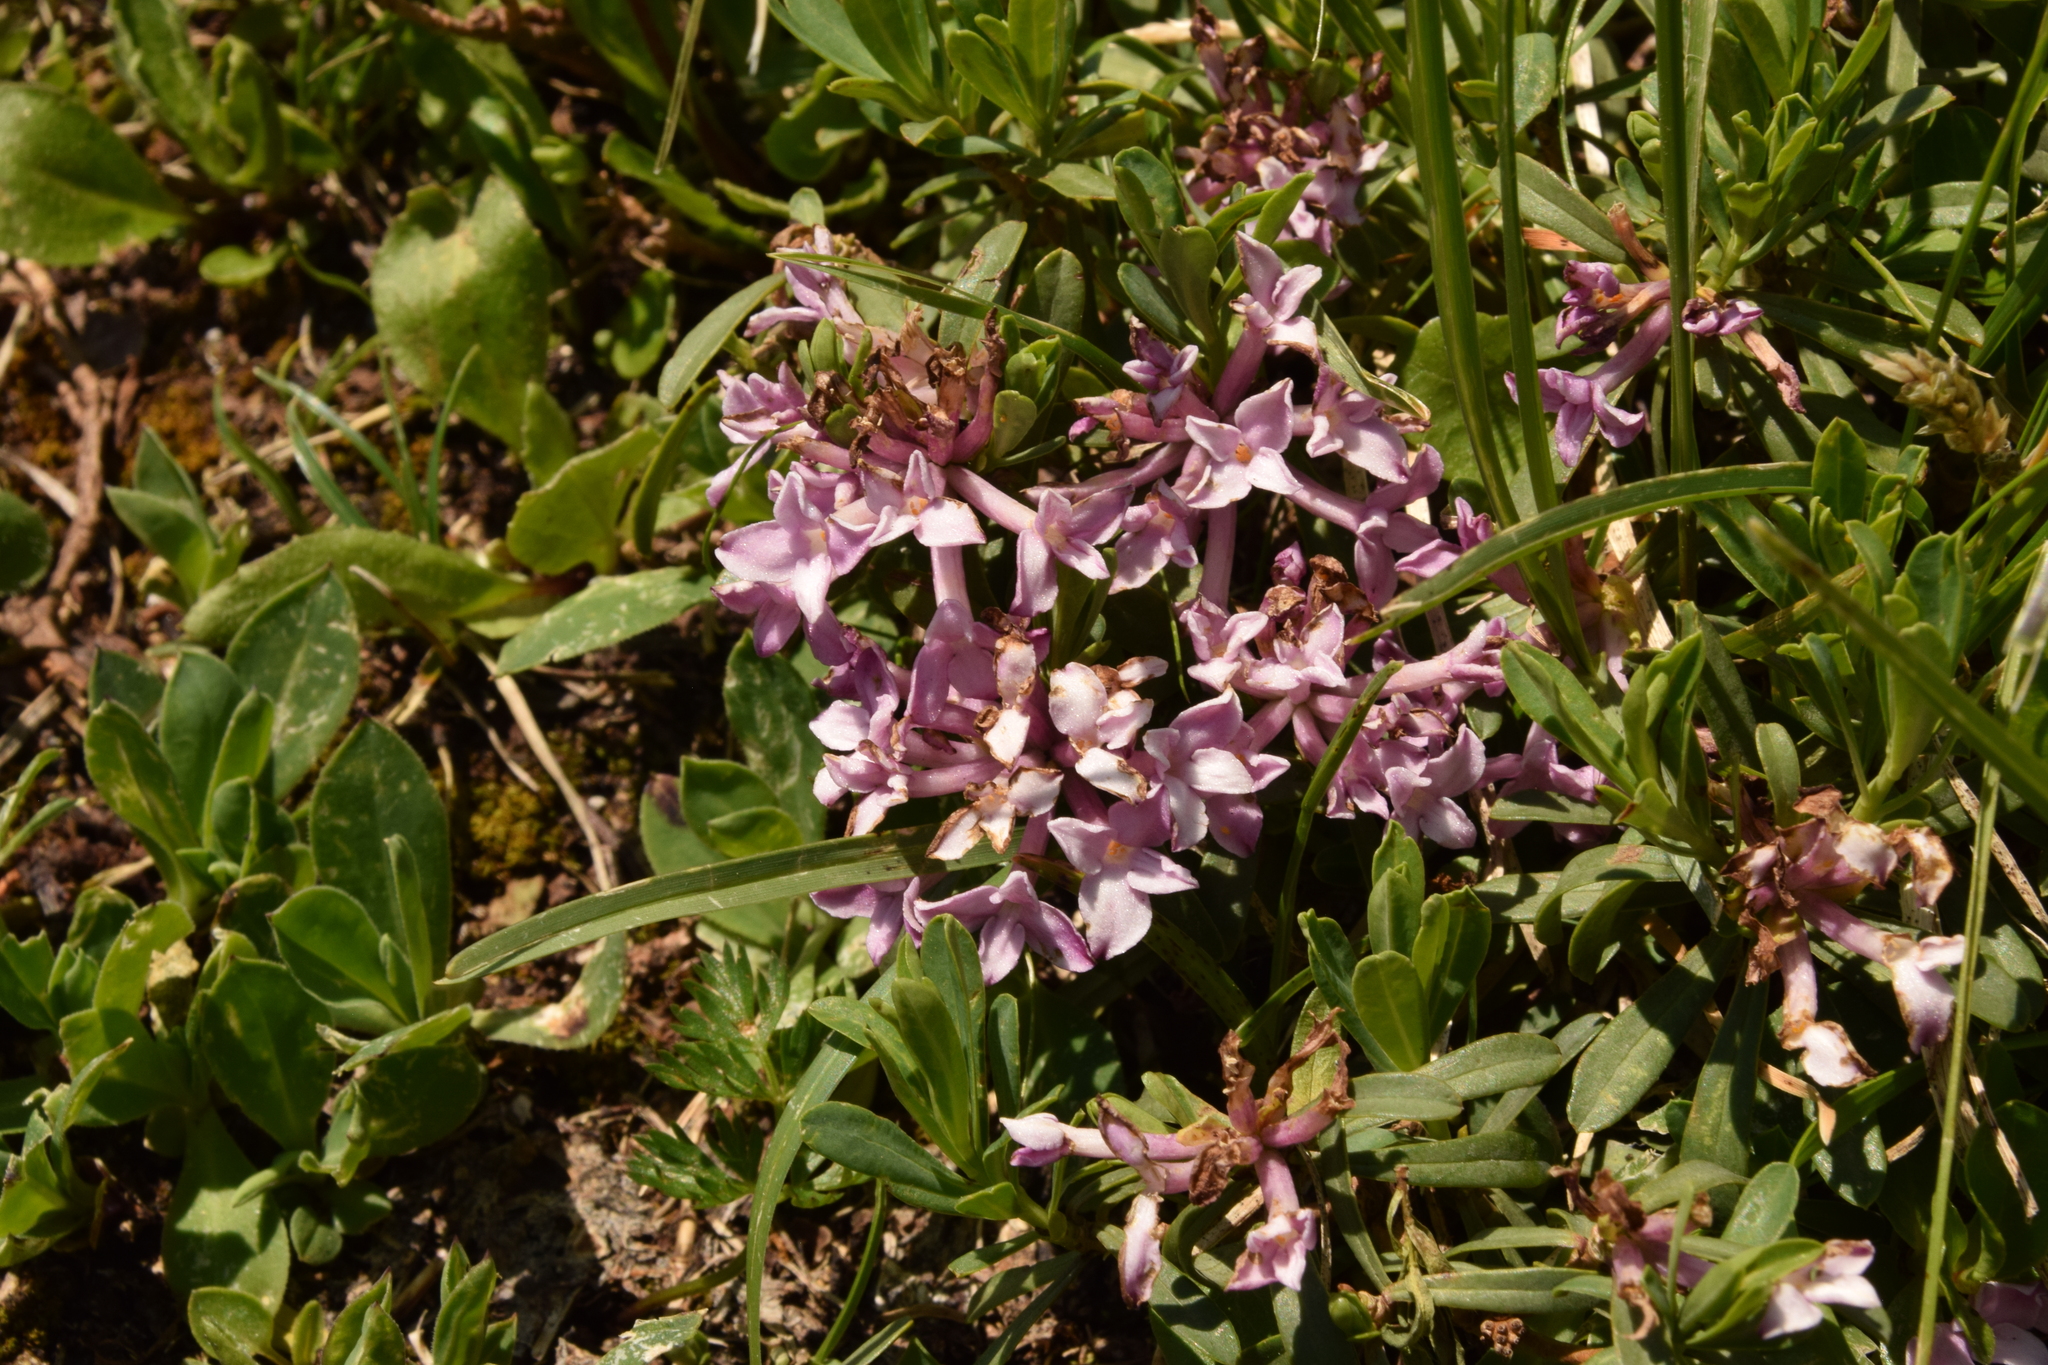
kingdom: Plantae
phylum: Tracheophyta
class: Magnoliopsida
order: Malvales
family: Thymelaeaceae
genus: Daphne
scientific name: Daphne striata
